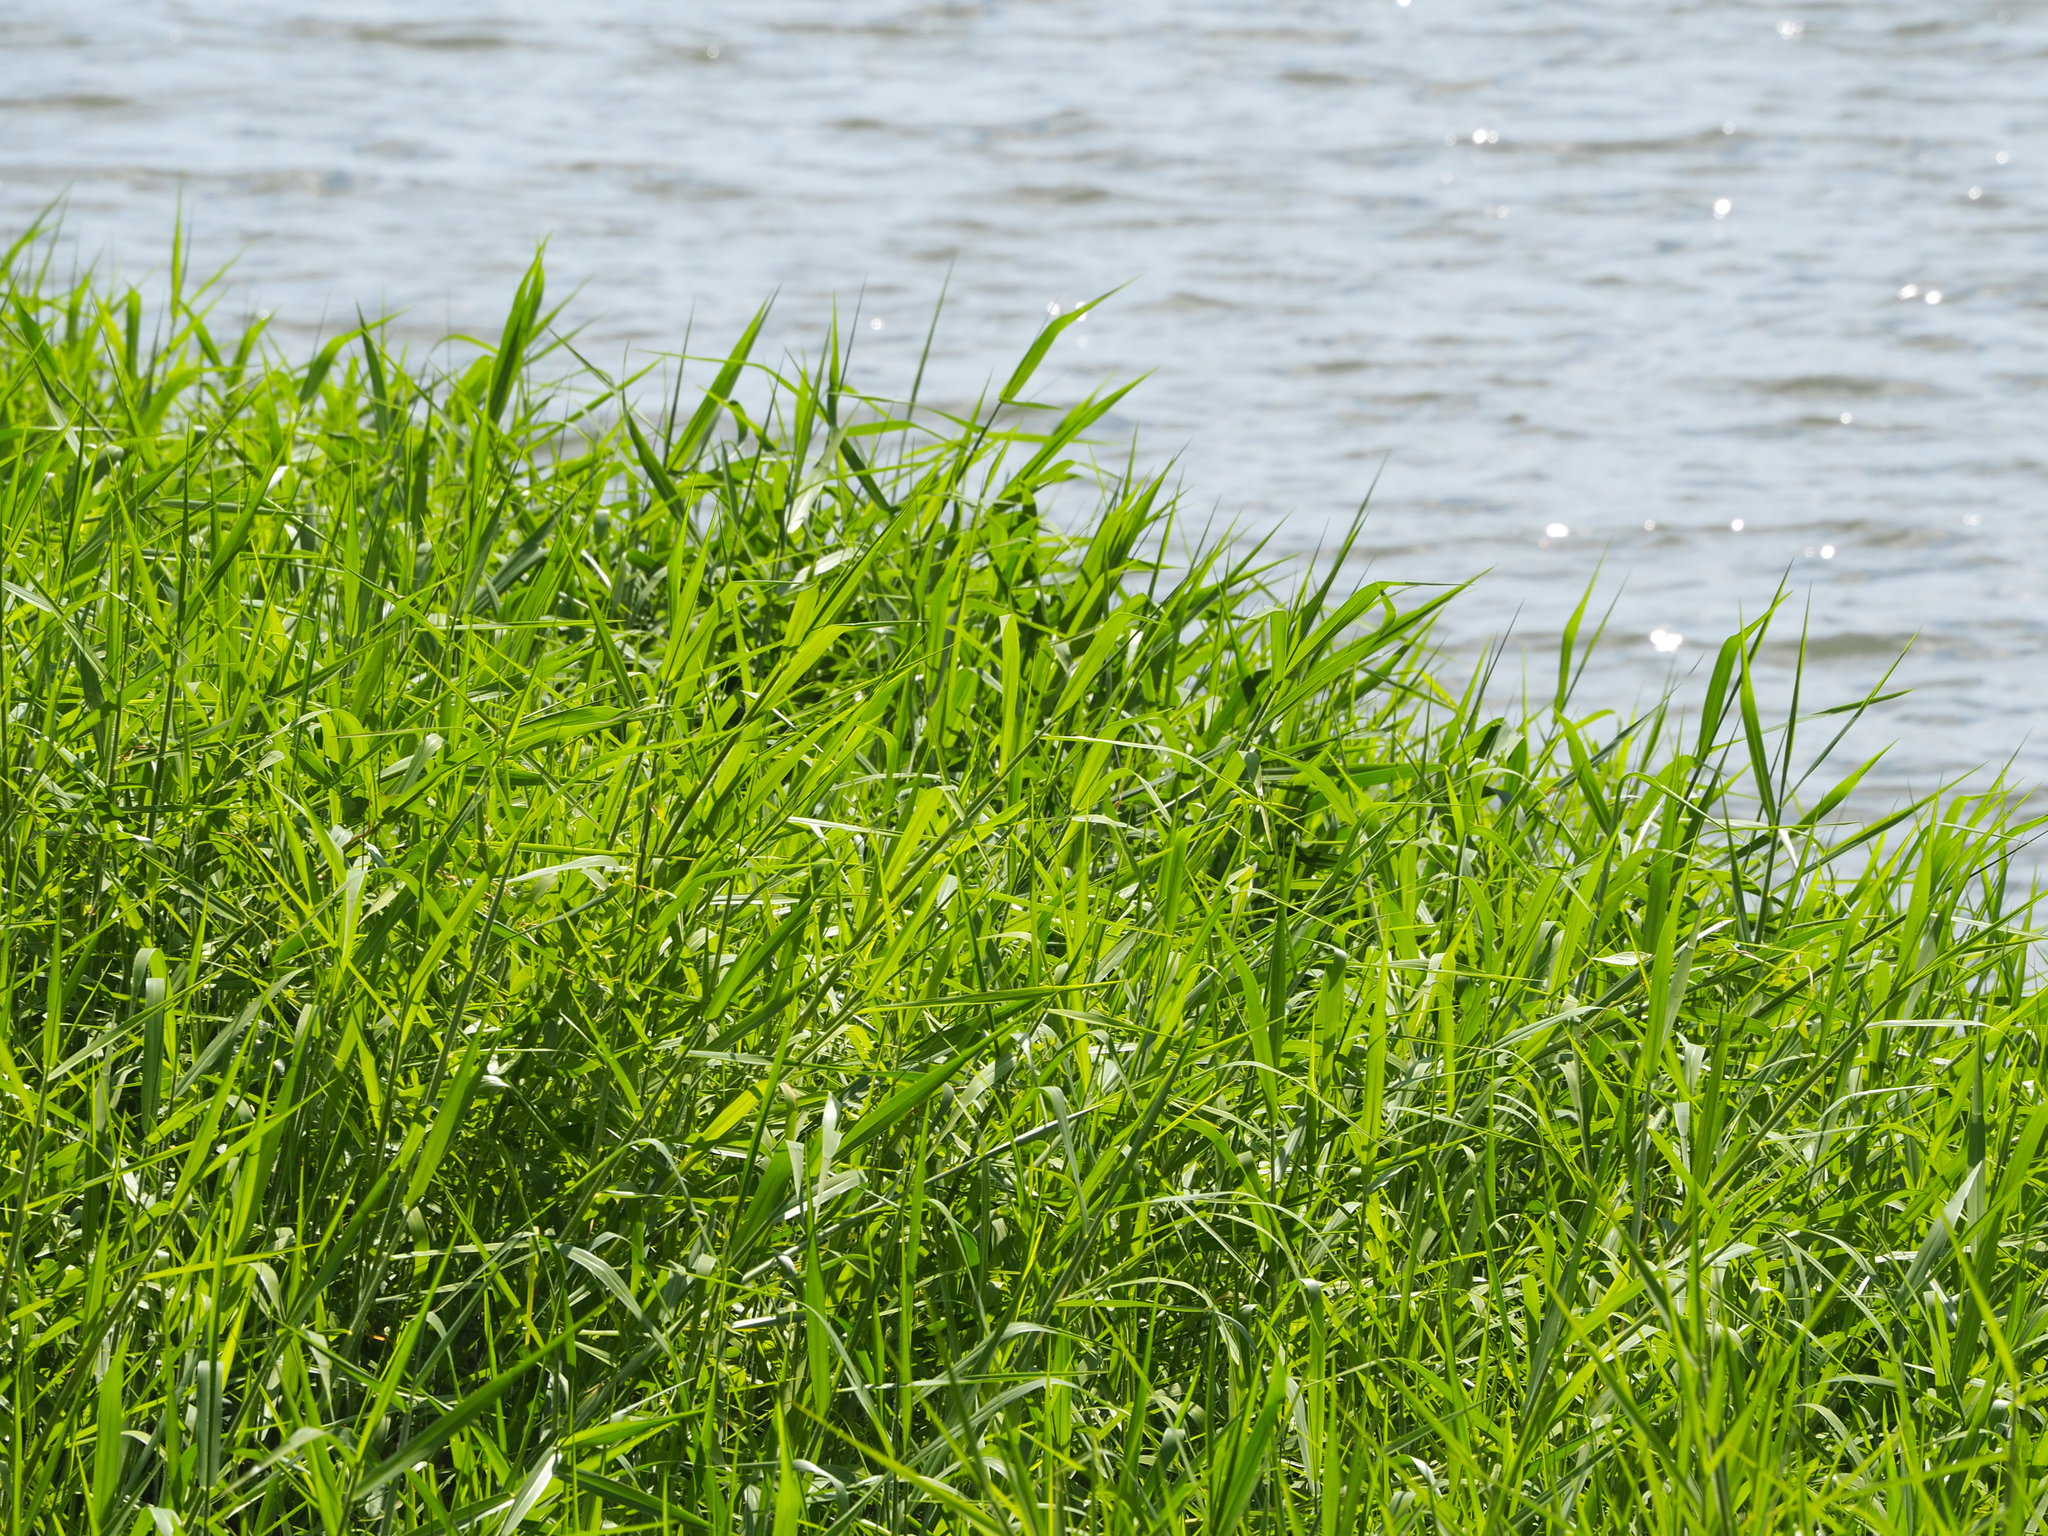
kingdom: Plantae
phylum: Tracheophyta
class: Liliopsida
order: Poales
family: Poaceae
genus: Urochloa
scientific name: Urochloa mutica
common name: Para grass
